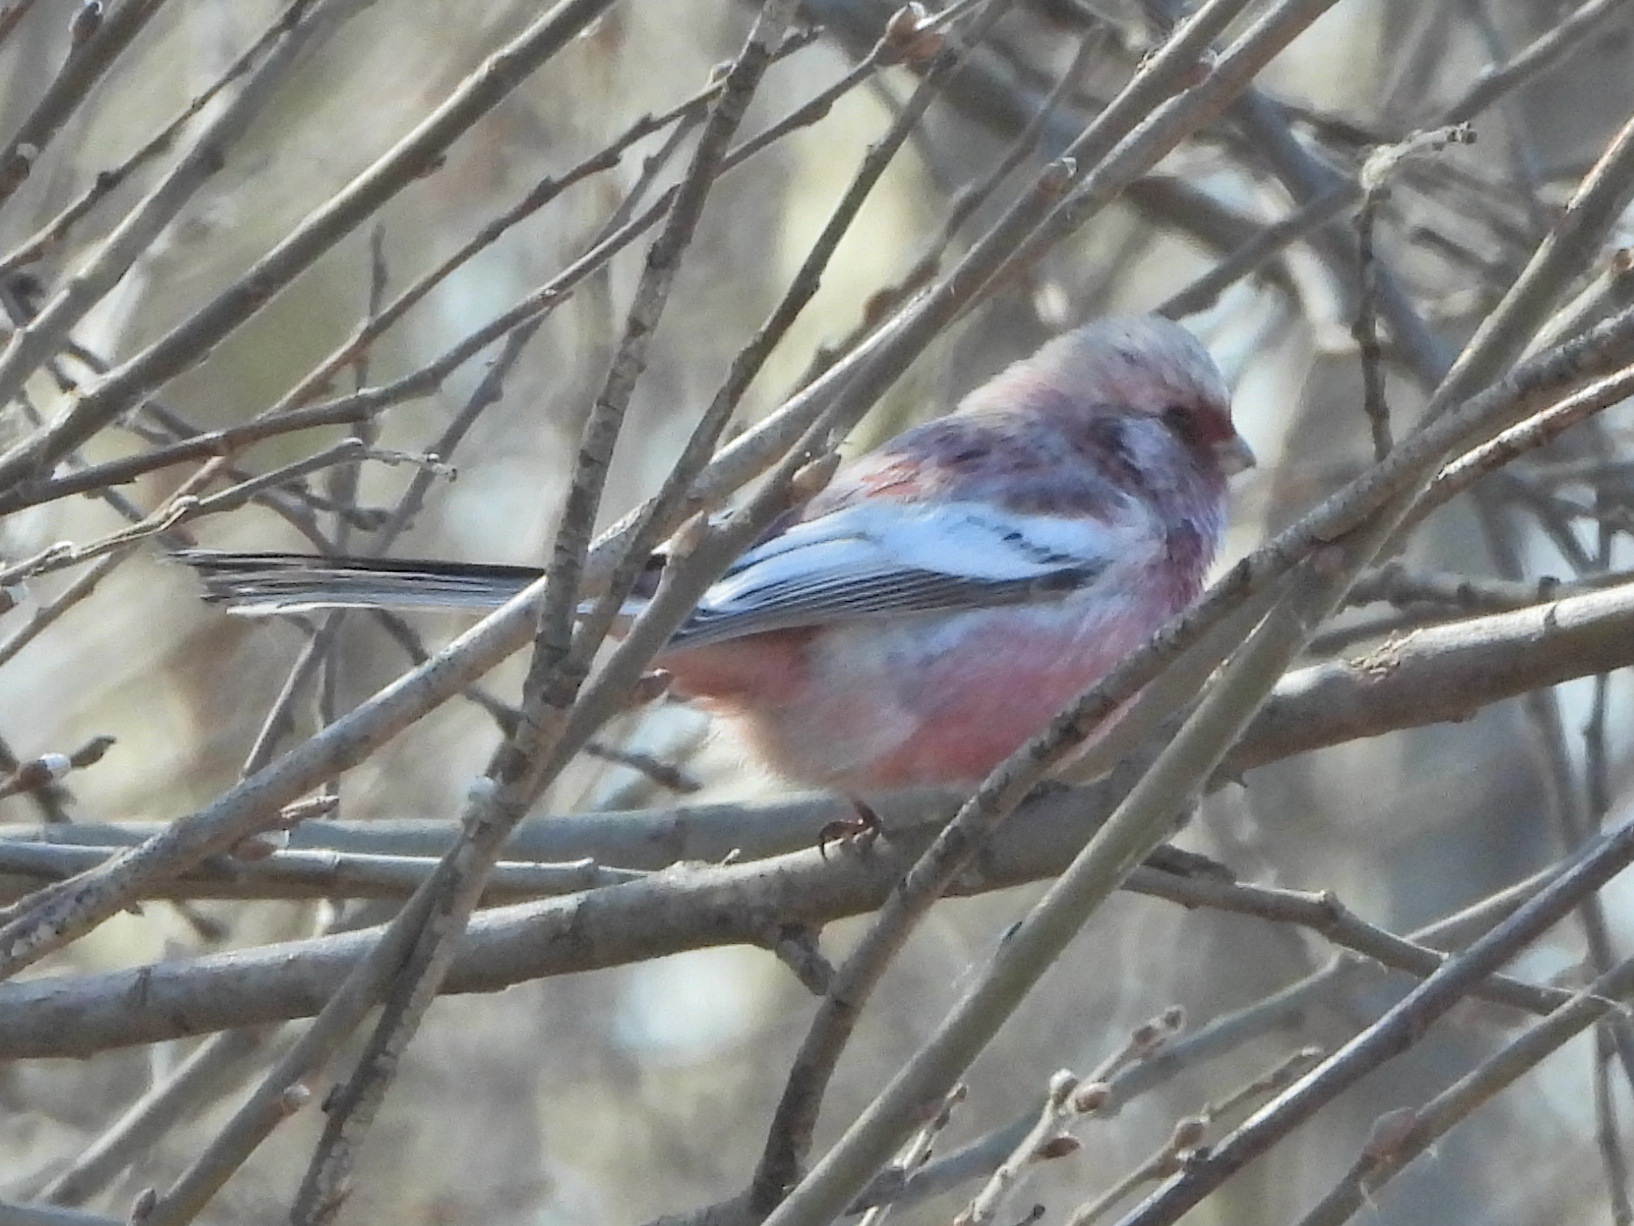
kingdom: Animalia
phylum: Chordata
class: Aves
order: Passeriformes
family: Fringillidae
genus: Carpodacus
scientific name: Carpodacus sibiricus
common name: Long-tailed rosefinch
